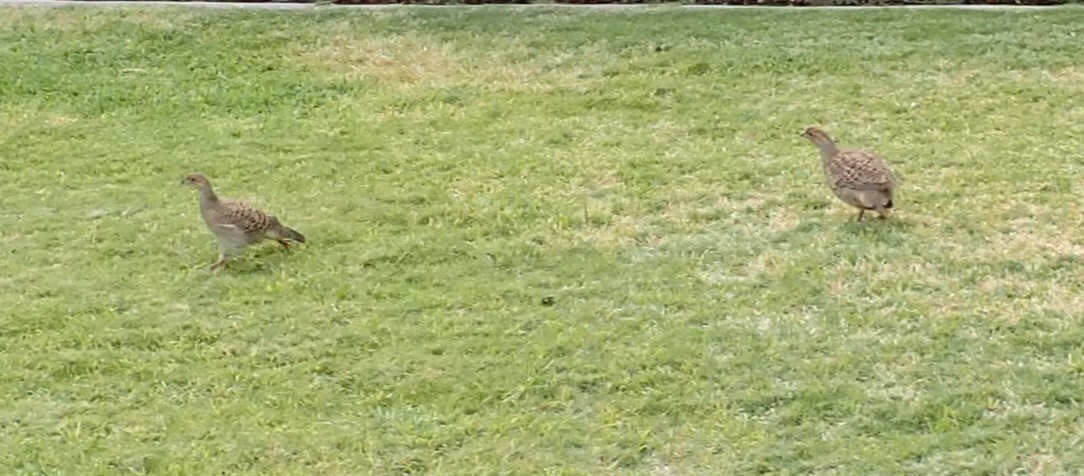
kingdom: Animalia
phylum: Chordata
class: Aves
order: Galliformes
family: Phasianidae
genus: Ortygornis
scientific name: Ortygornis pondicerianus
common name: Grey francolin
